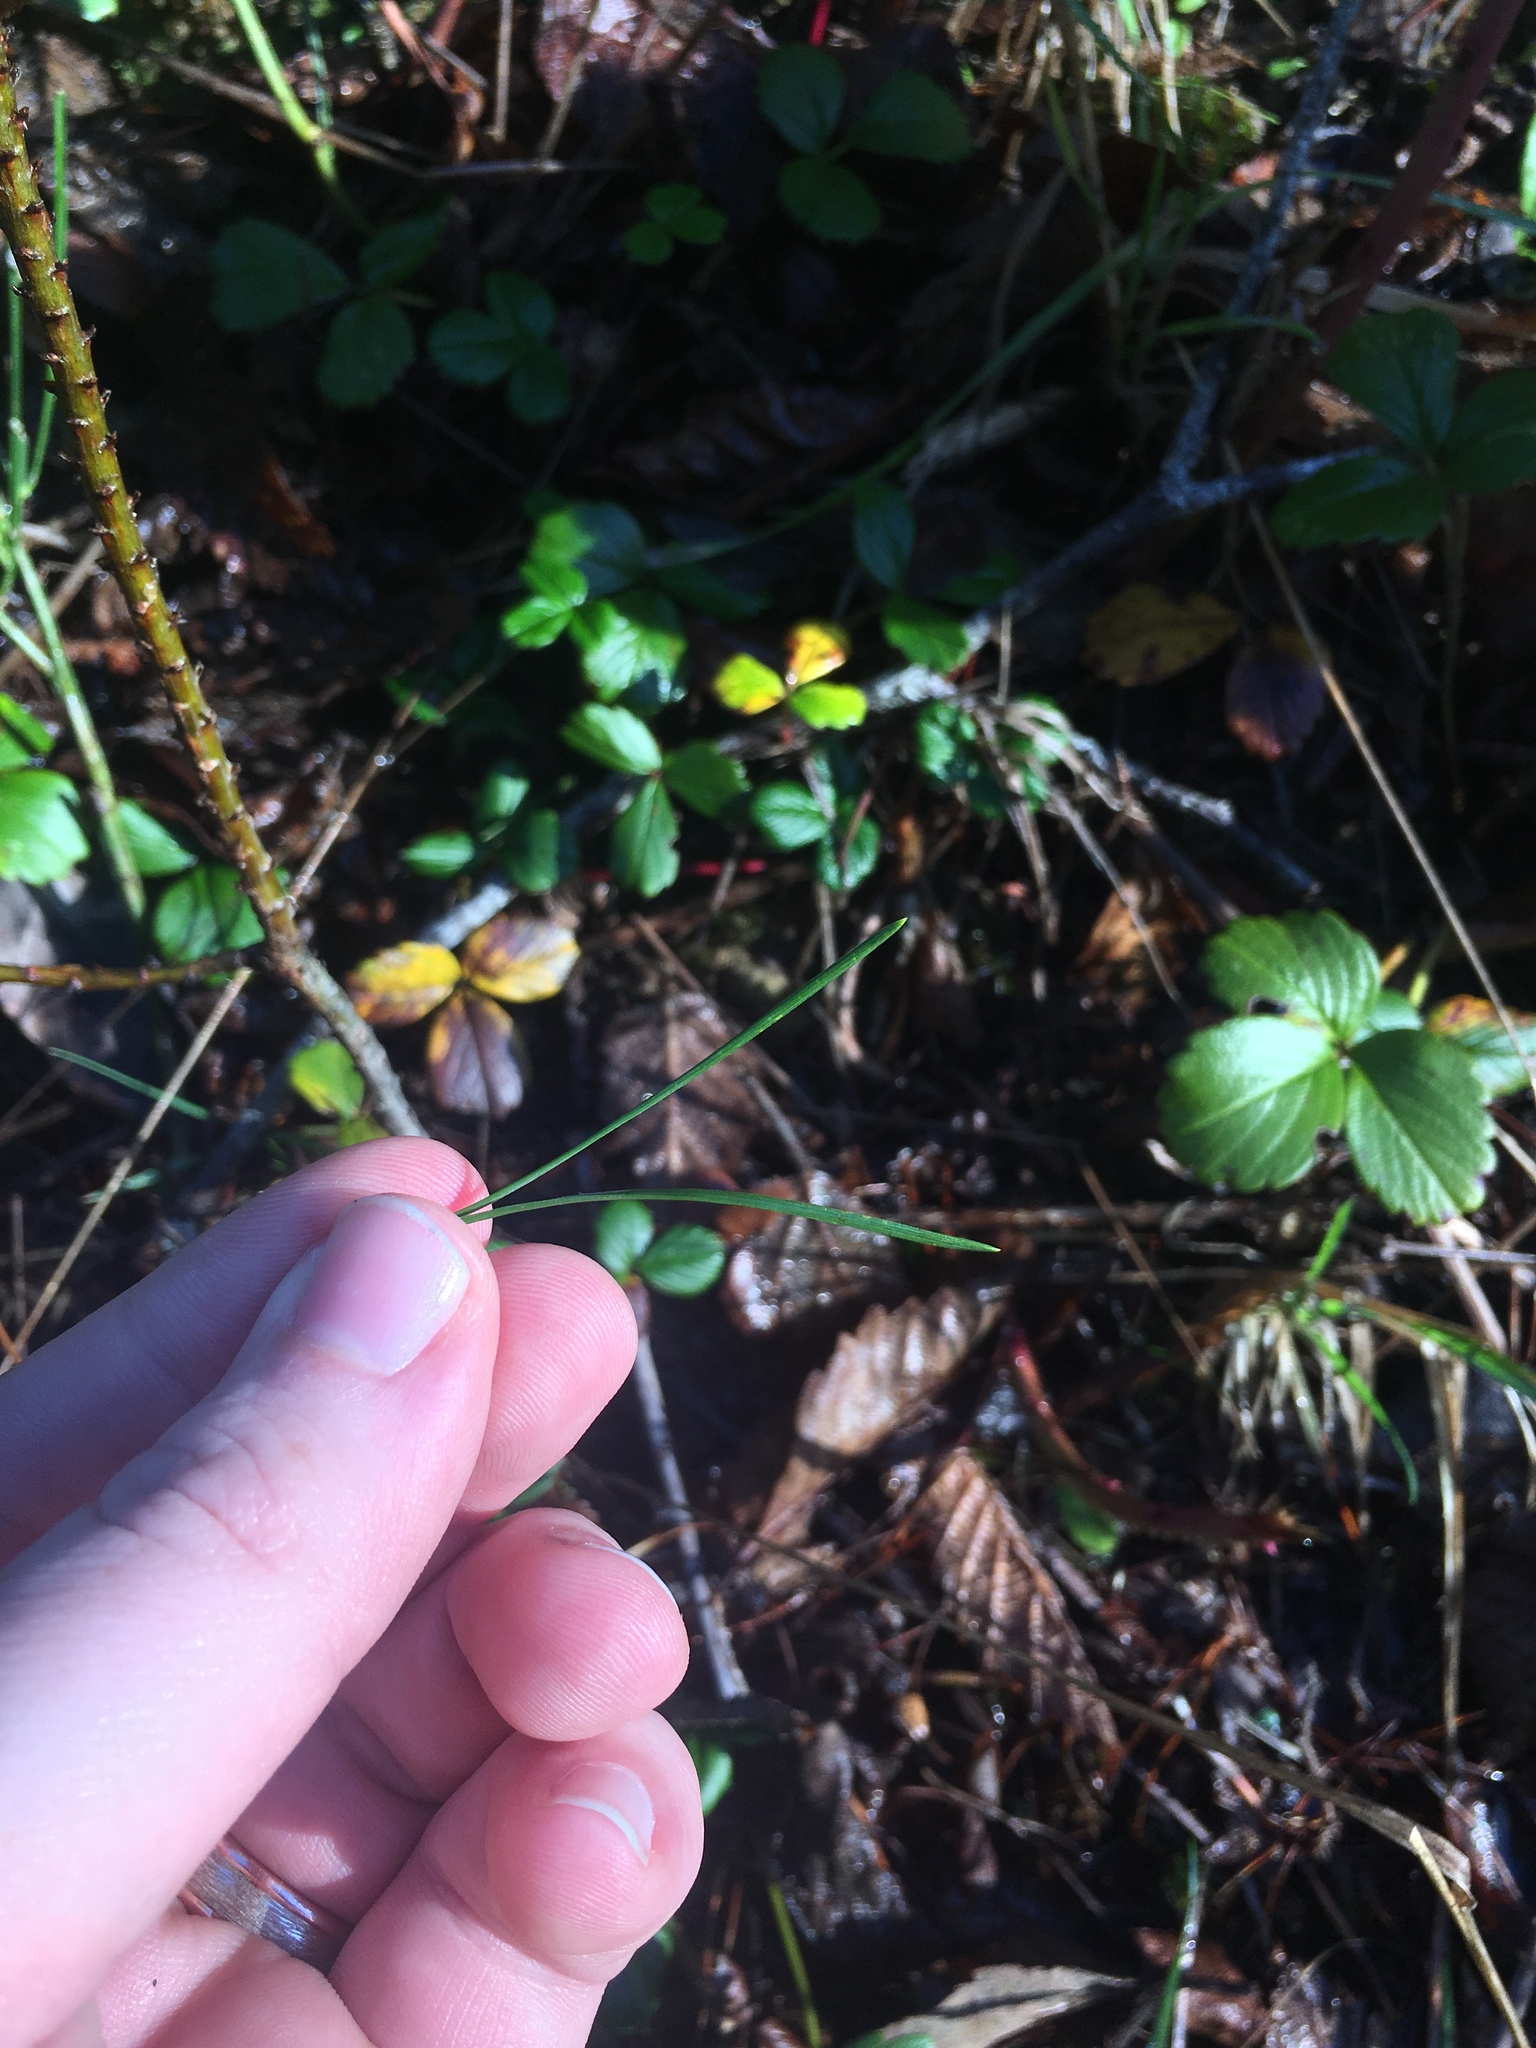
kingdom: Plantae
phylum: Tracheophyta
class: Pinopsida
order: Pinales
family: Pinaceae
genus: Pinus
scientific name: Pinus contorta
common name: Lodgepole pine
